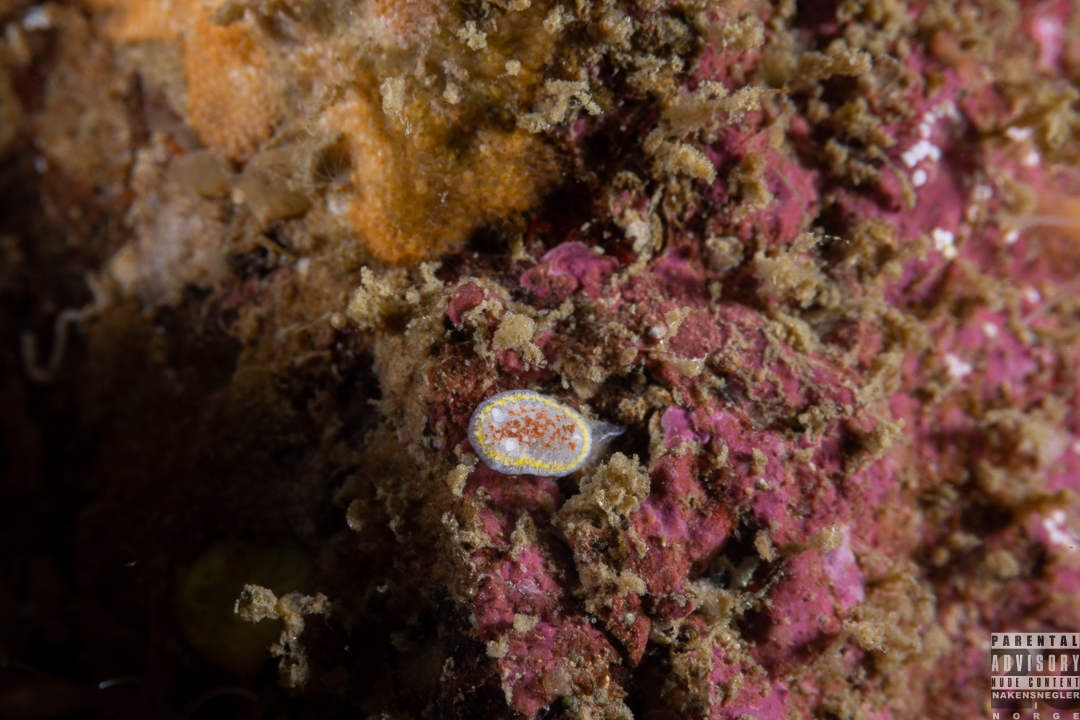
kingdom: Animalia
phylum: Mollusca
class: Gastropoda
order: Nudibranchia
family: Calycidorididae
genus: Diaphorodoris
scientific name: Diaphorodoris luteocincta
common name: Fried egg nudibranch
